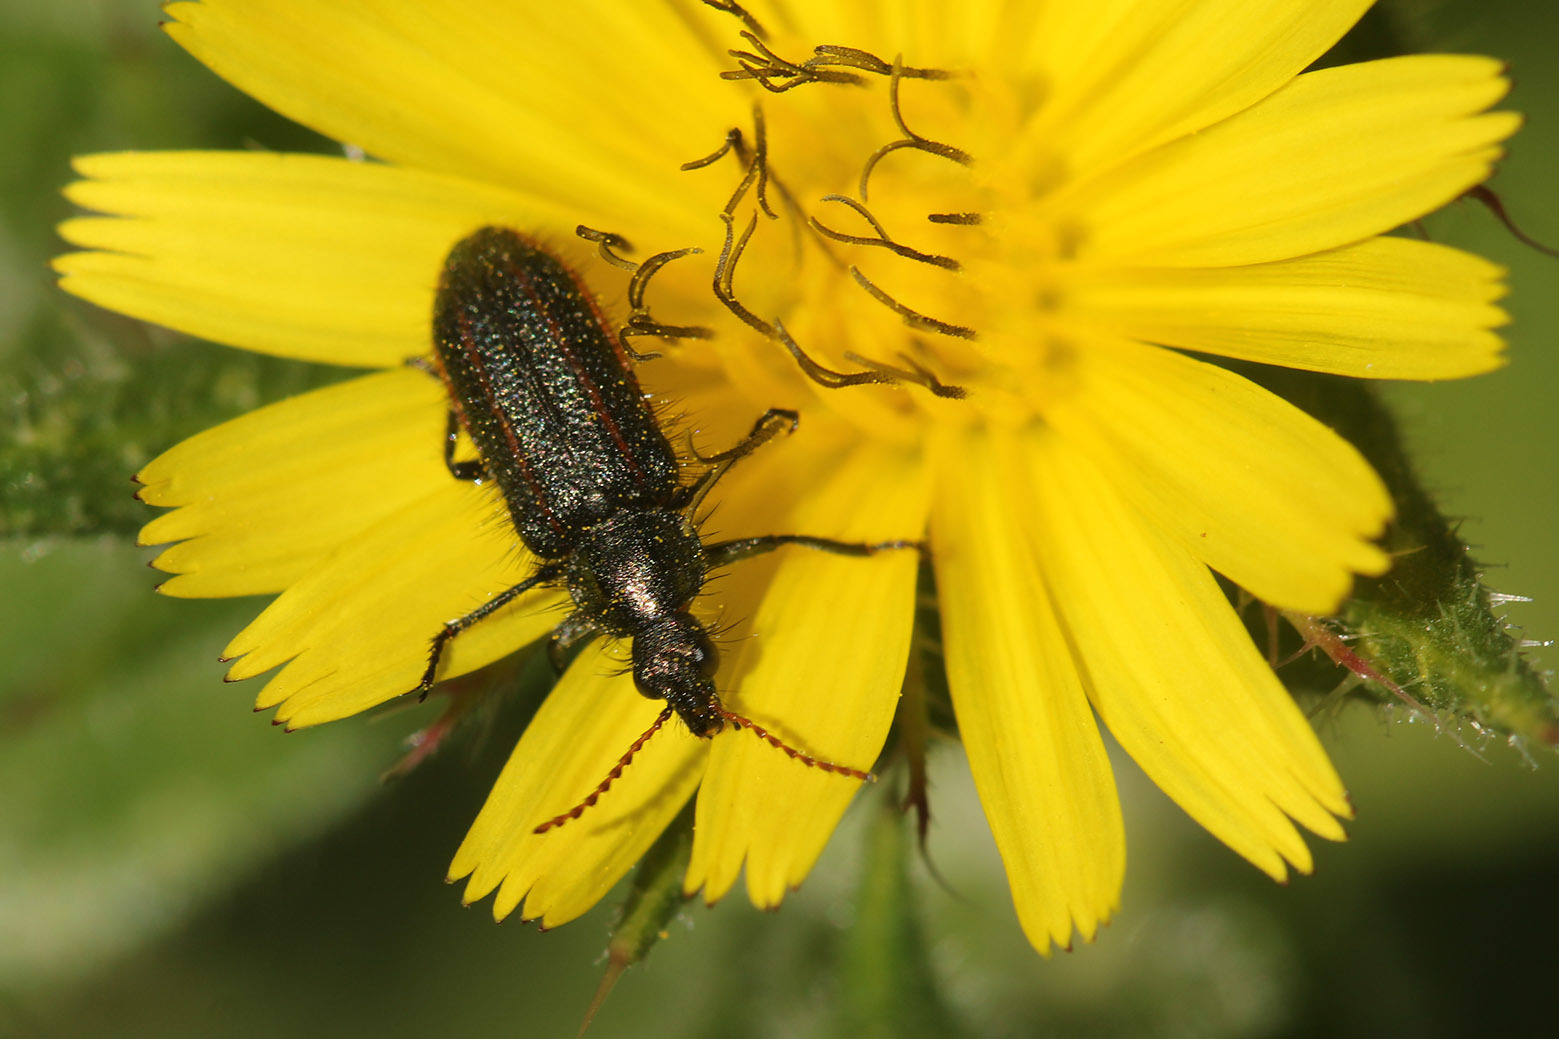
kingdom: Animalia
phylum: Arthropoda
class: Insecta
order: Coleoptera
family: Melyridae
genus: Astylus
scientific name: Astylus
